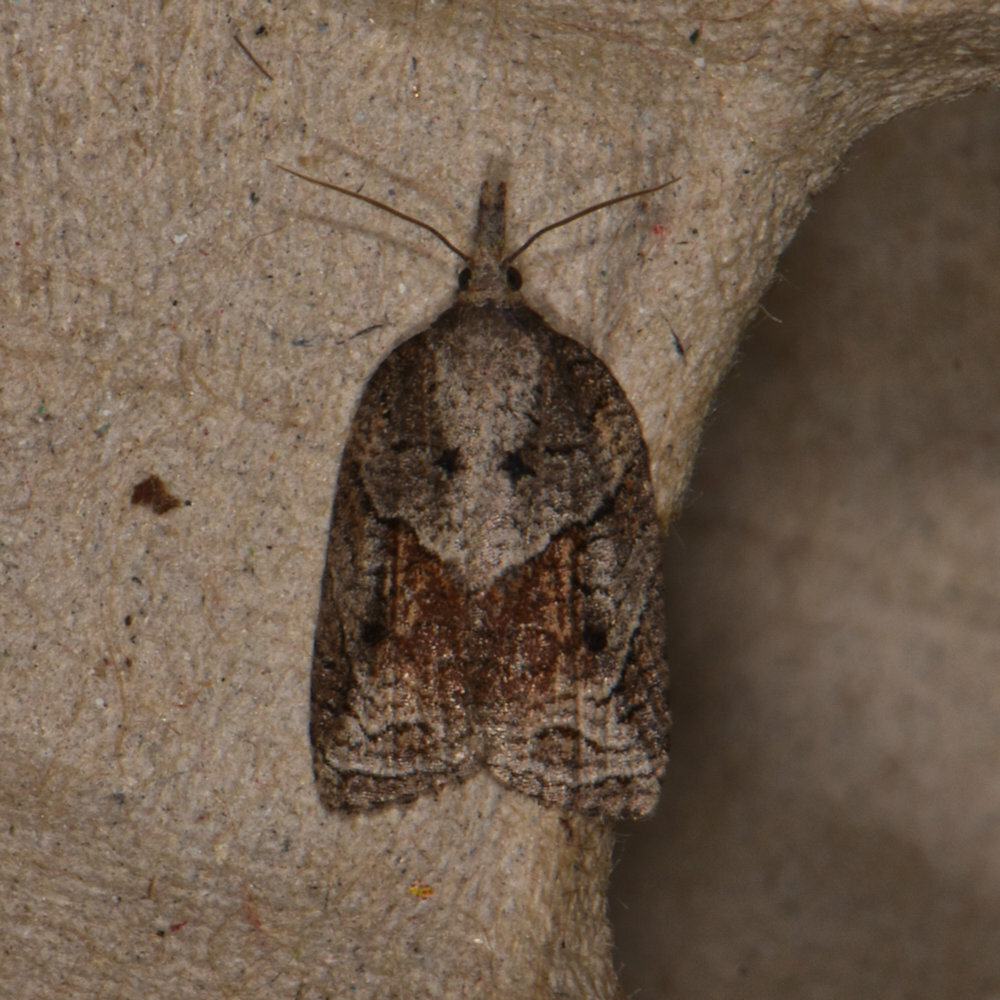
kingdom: Animalia
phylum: Arthropoda
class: Insecta
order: Lepidoptera
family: Tortricidae
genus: Platynota
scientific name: Platynota idaeusalis
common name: Tufted apple bud moth
